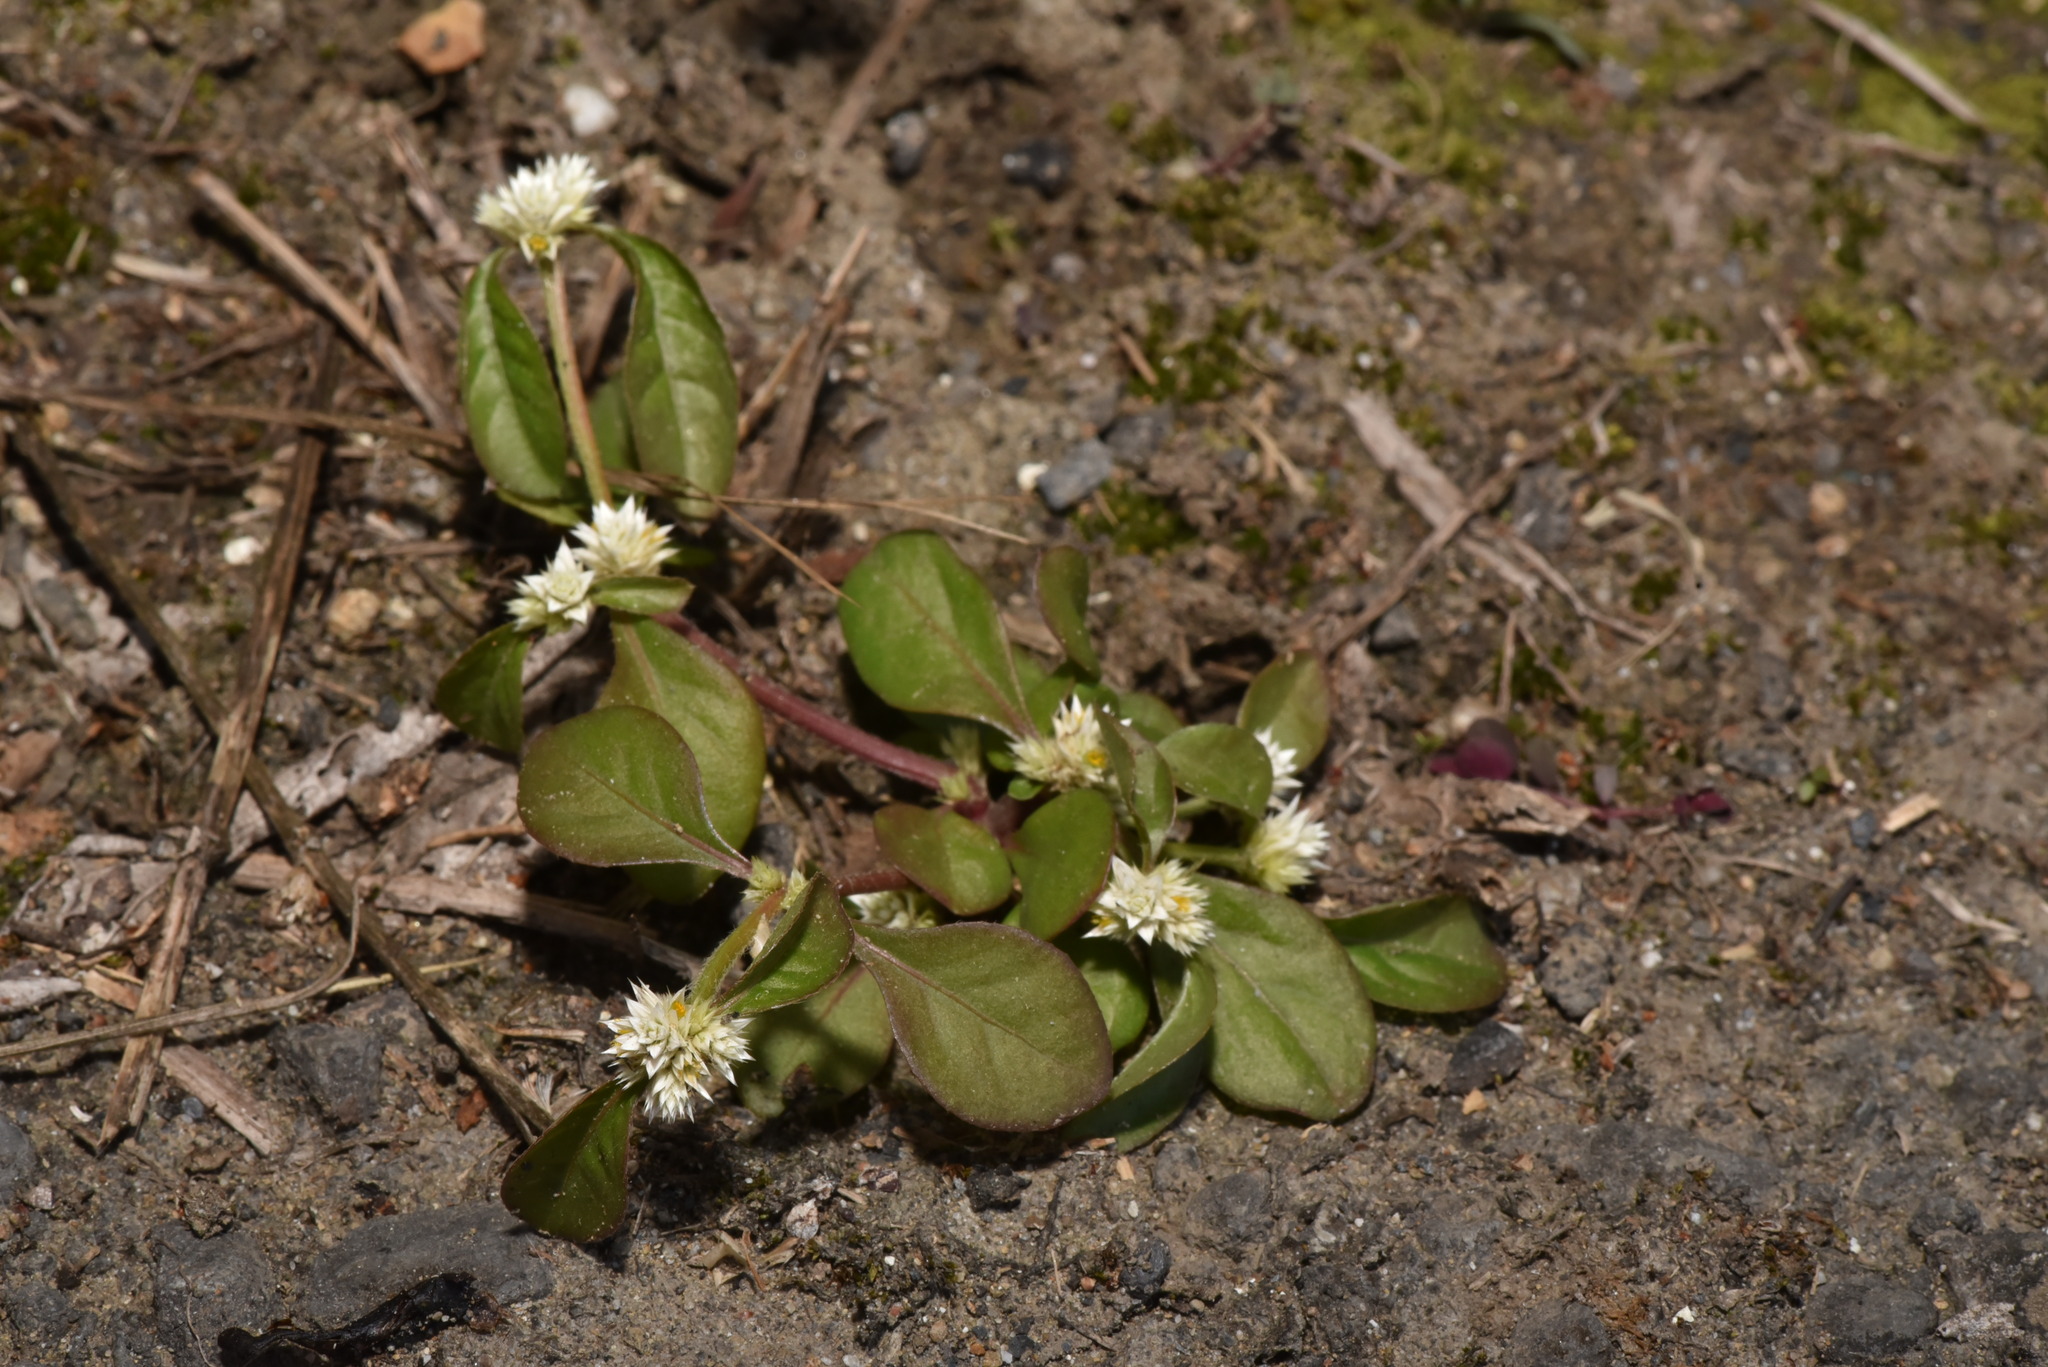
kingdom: Plantae
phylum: Tracheophyta
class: Magnoliopsida
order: Caryophyllales
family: Amaranthaceae
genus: Alternanthera
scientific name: Alternanthera ficoidea
